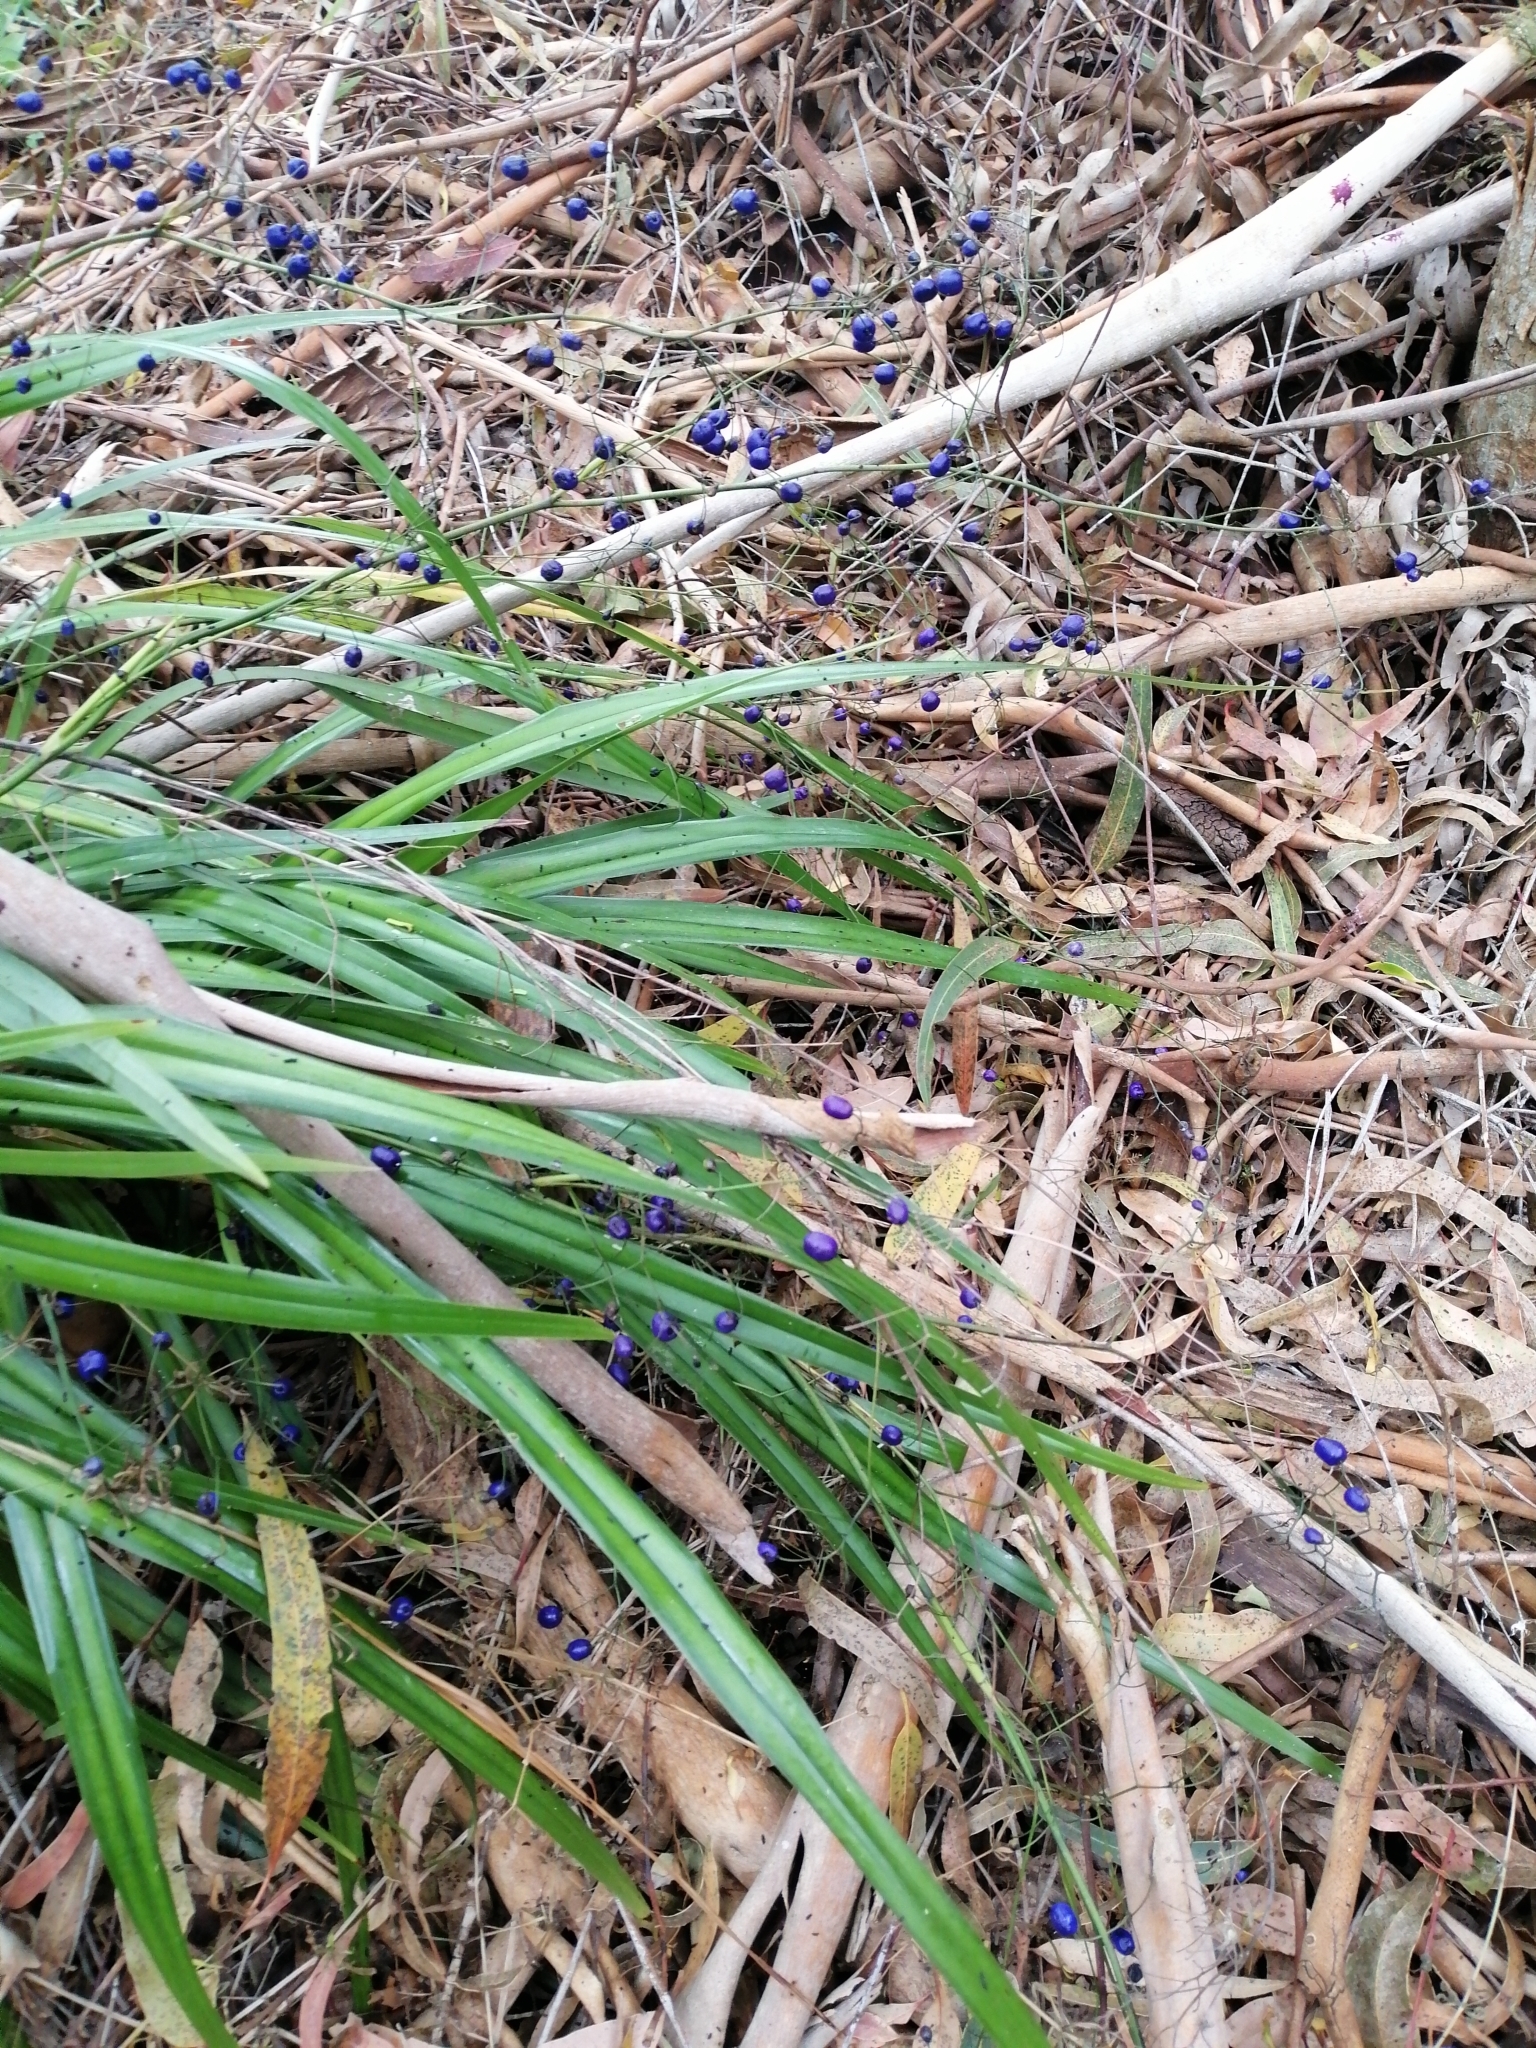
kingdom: Plantae
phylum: Tracheophyta
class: Liliopsida
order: Asparagales
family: Asphodelaceae
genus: Dianella
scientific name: Dianella nigra
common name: New zealand-blueberry
